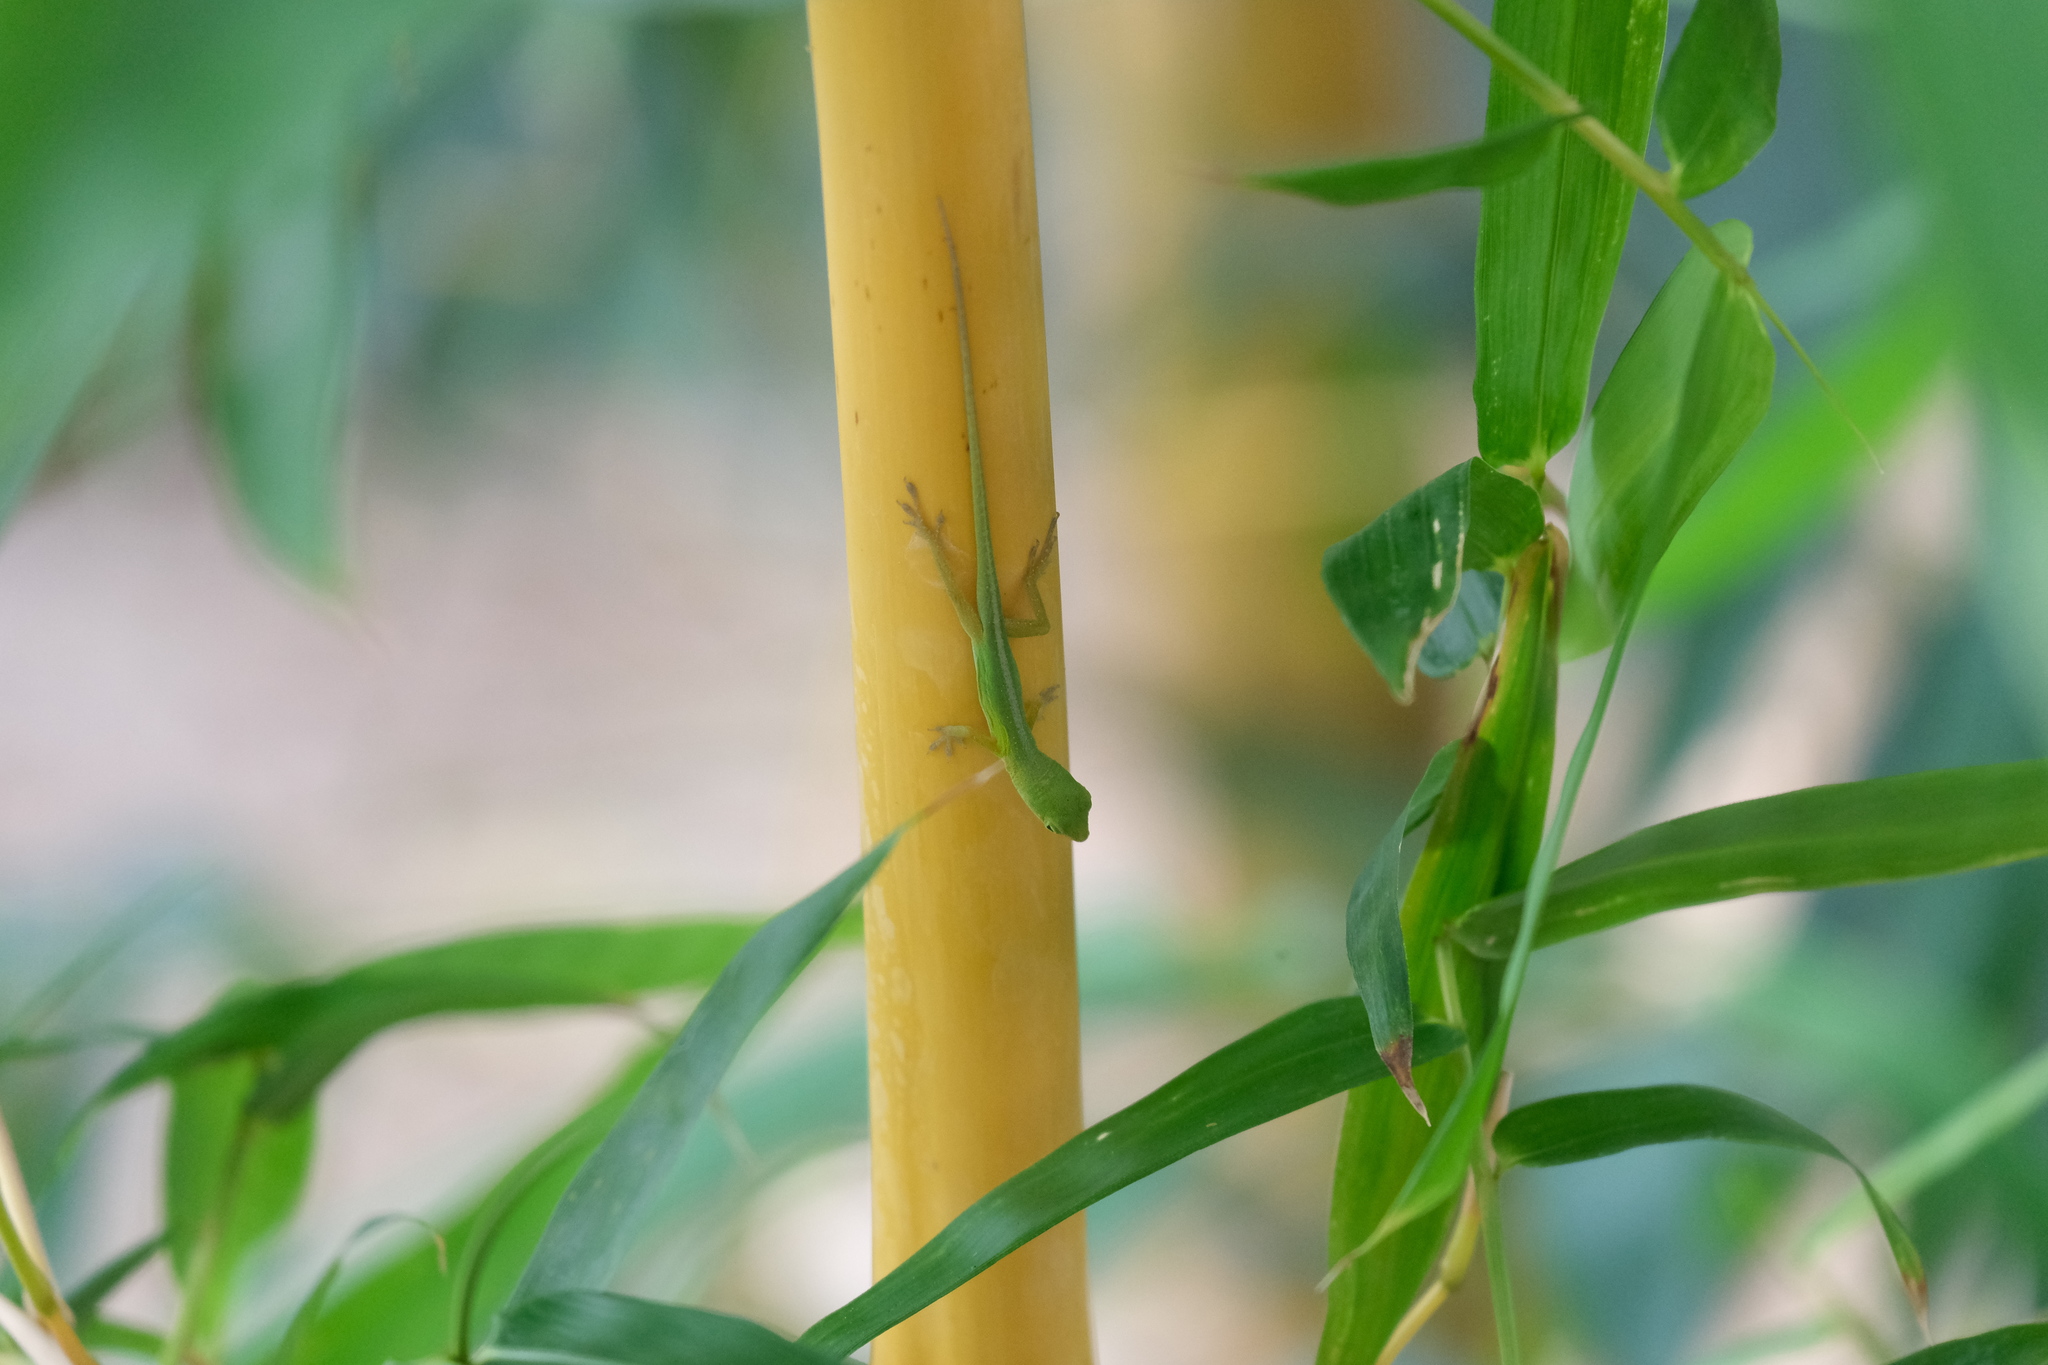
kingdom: Animalia
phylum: Chordata
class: Squamata
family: Dactyloidae
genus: Anolis
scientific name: Anolis chlorocyanus
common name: Hispaniolan green anole
